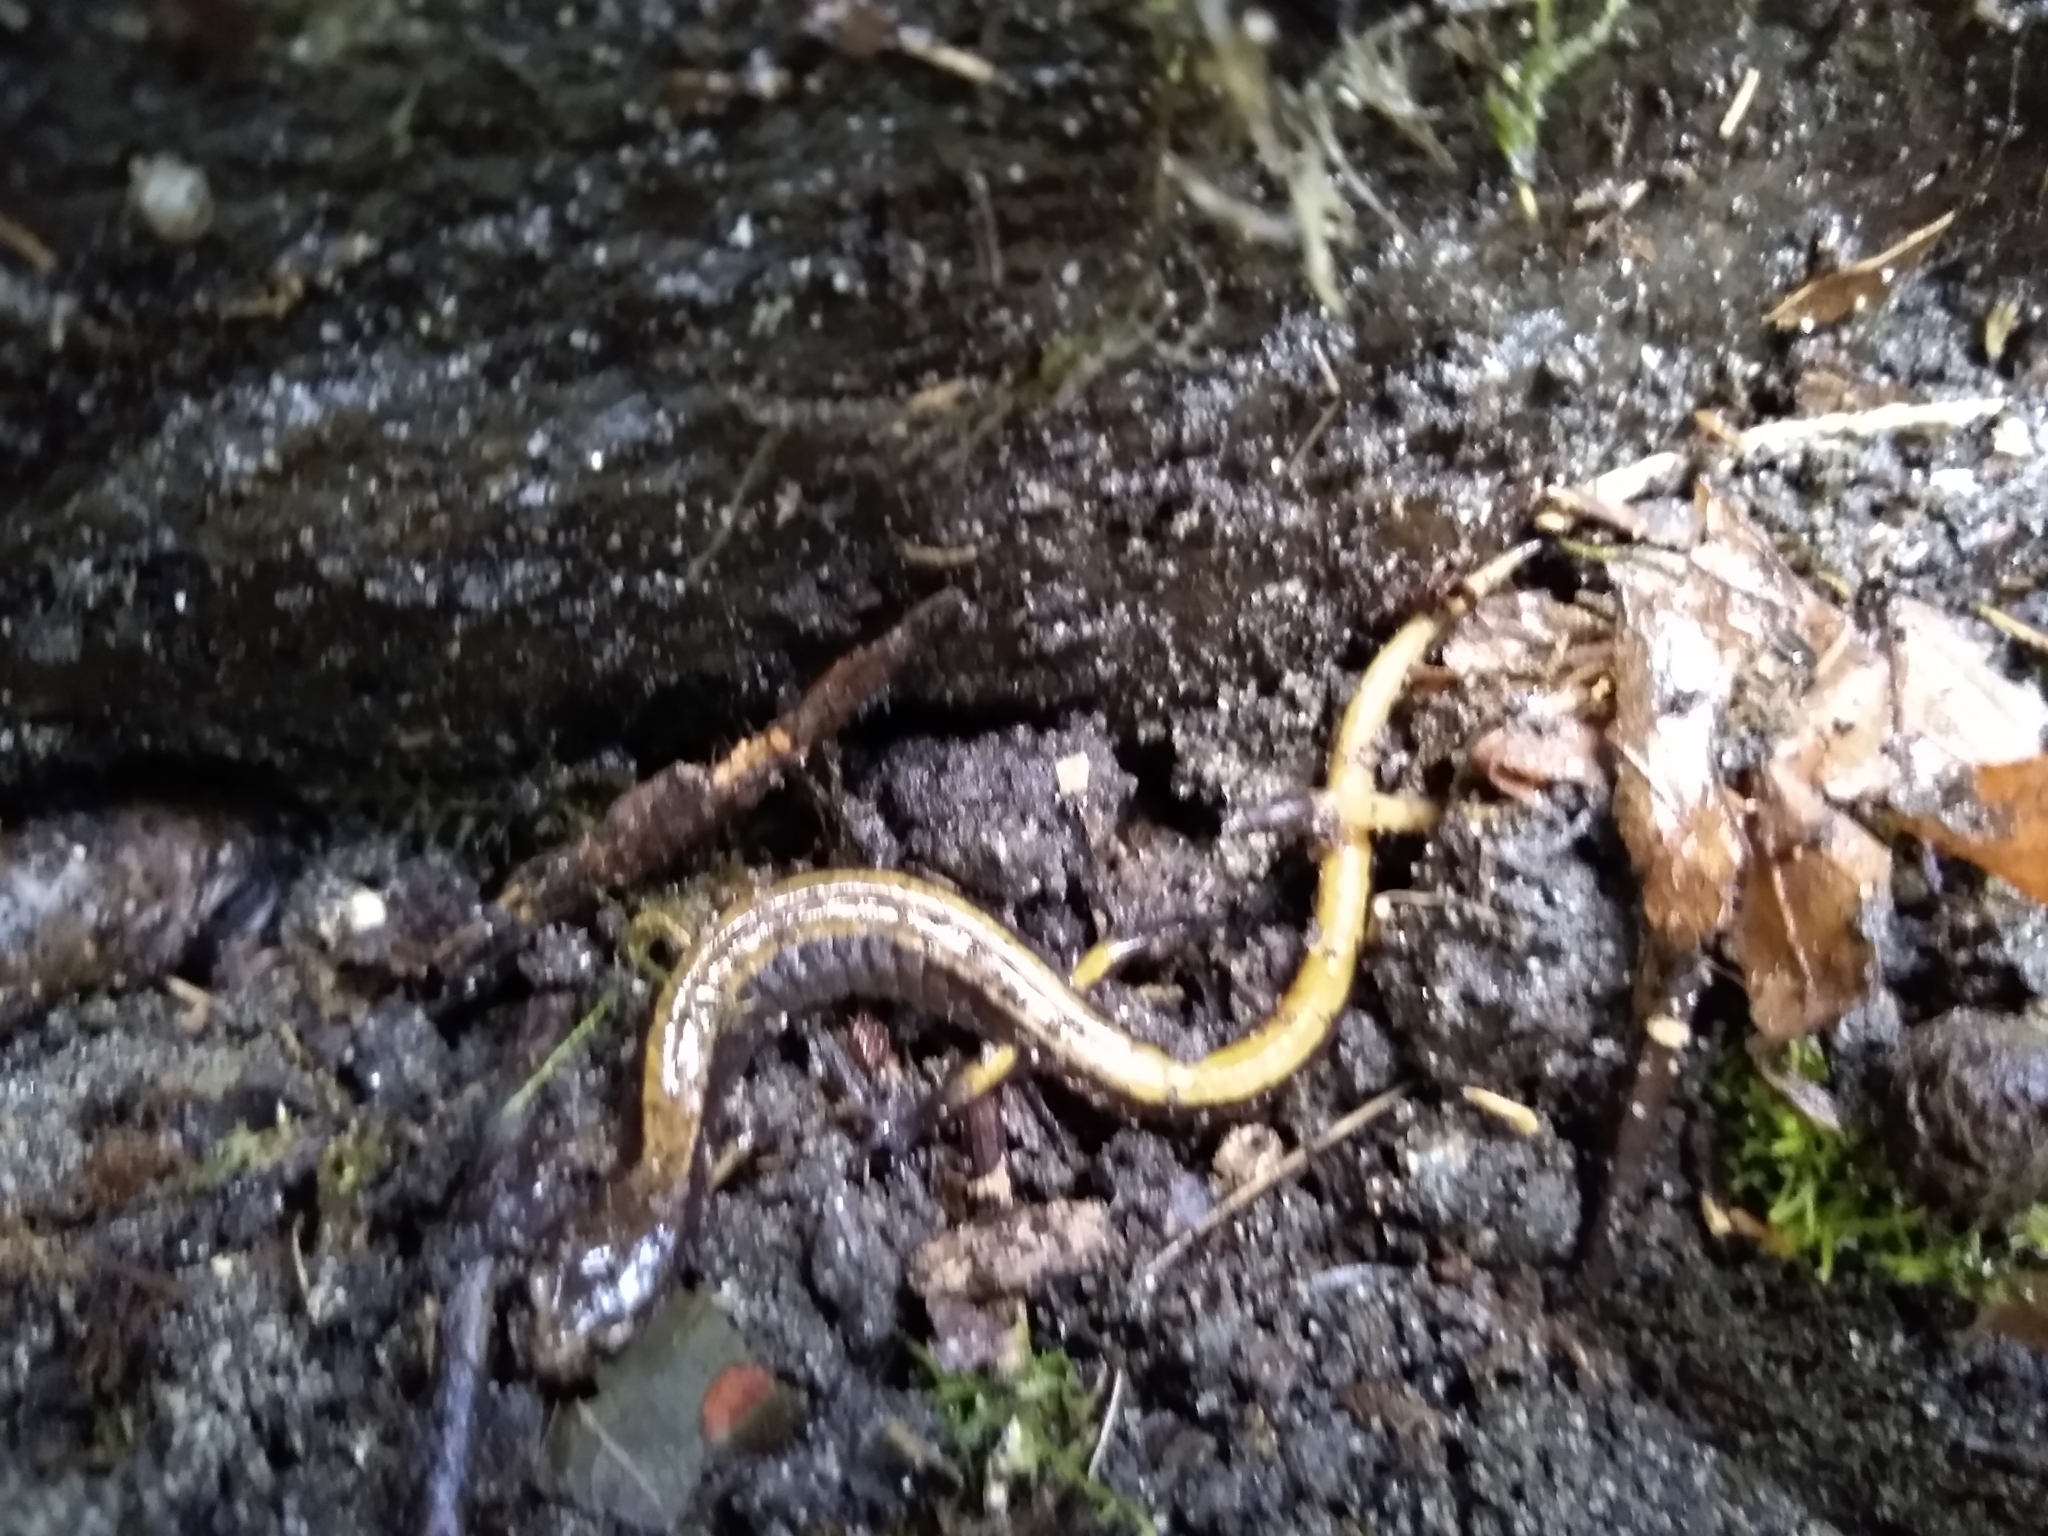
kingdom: Animalia
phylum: Chordata
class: Amphibia
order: Caudata
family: Plethodontidae
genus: Plethodon
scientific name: Plethodon vehiculum
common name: Western red-backed salamander
